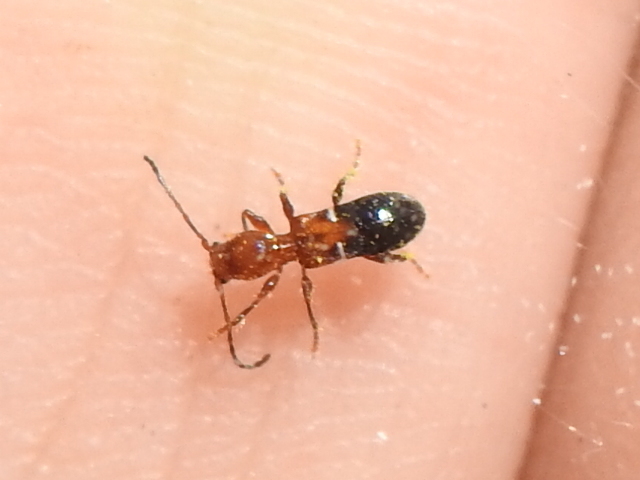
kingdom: Animalia
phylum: Arthropoda
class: Insecta
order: Coleoptera
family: Cerambycidae
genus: Euderces
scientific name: Euderces reichei
